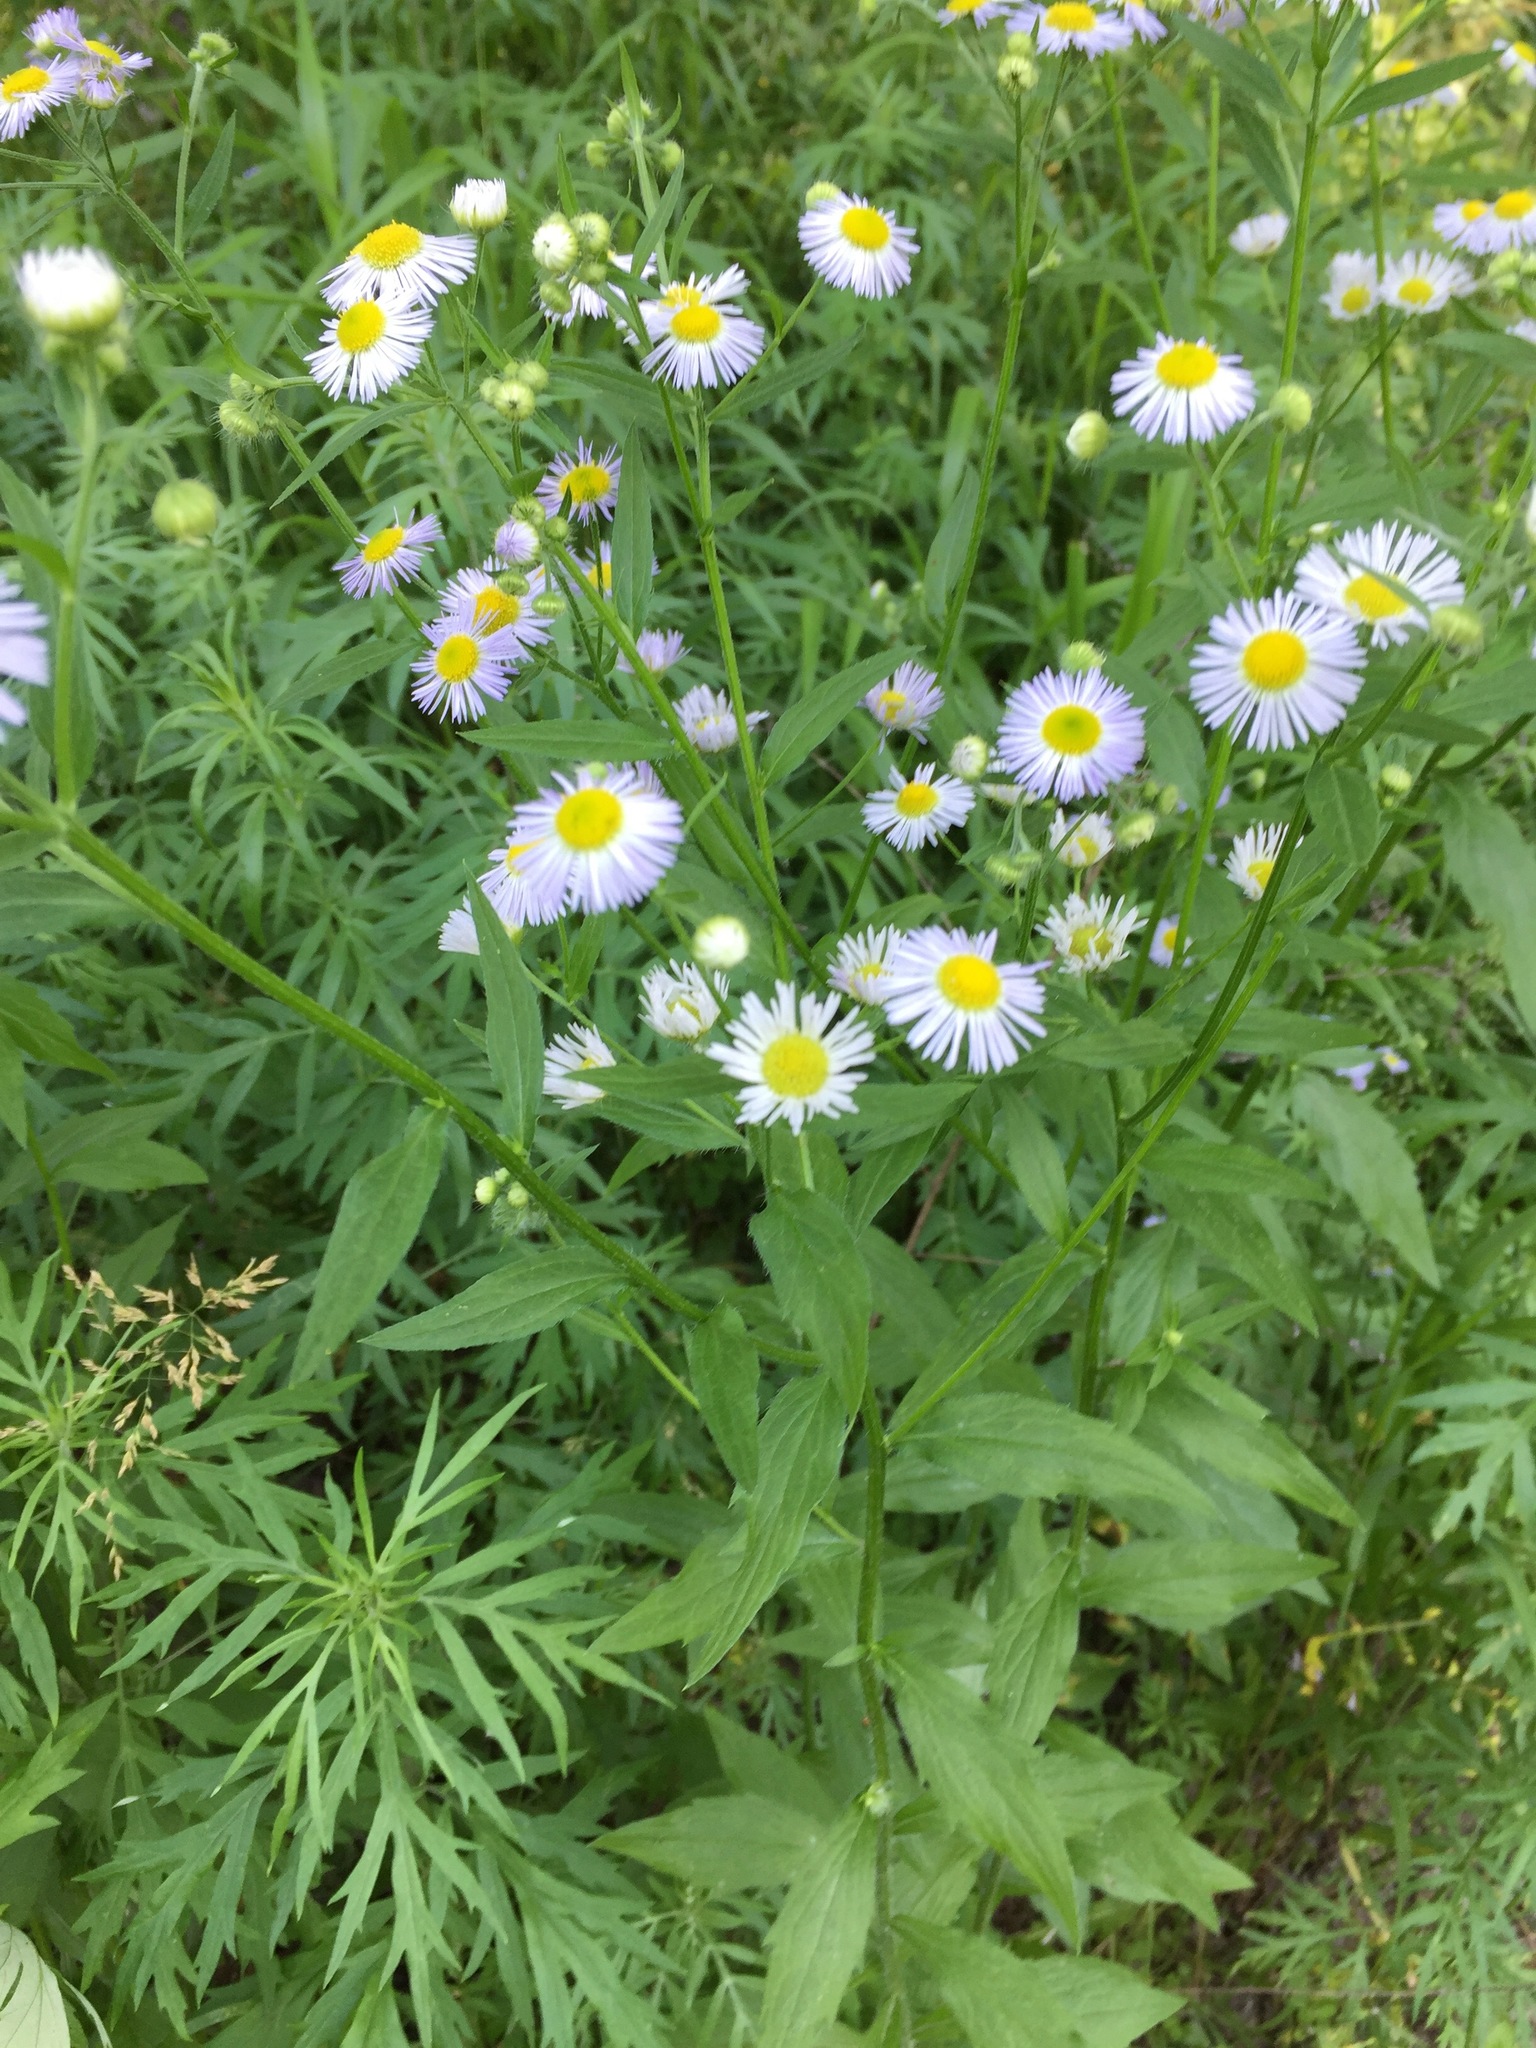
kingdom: Plantae
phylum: Tracheophyta
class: Magnoliopsida
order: Asterales
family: Asteraceae
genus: Erigeron
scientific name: Erigeron annuus
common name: Tall fleabane
